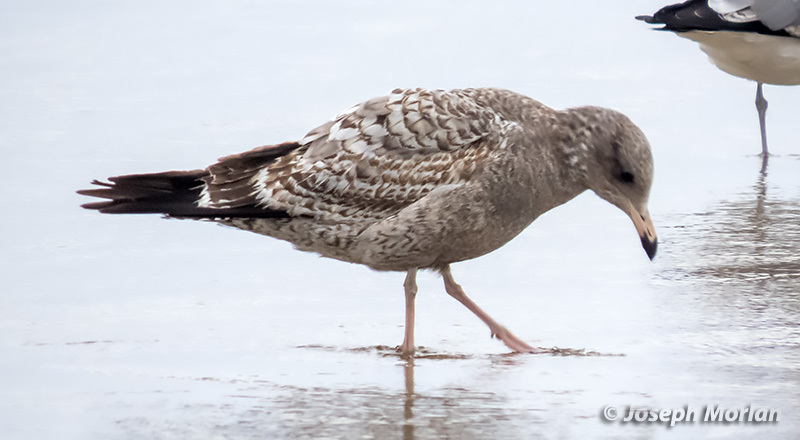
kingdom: Animalia
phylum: Chordata
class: Aves
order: Charadriiformes
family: Laridae
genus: Larus
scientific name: Larus californicus
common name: California gull
